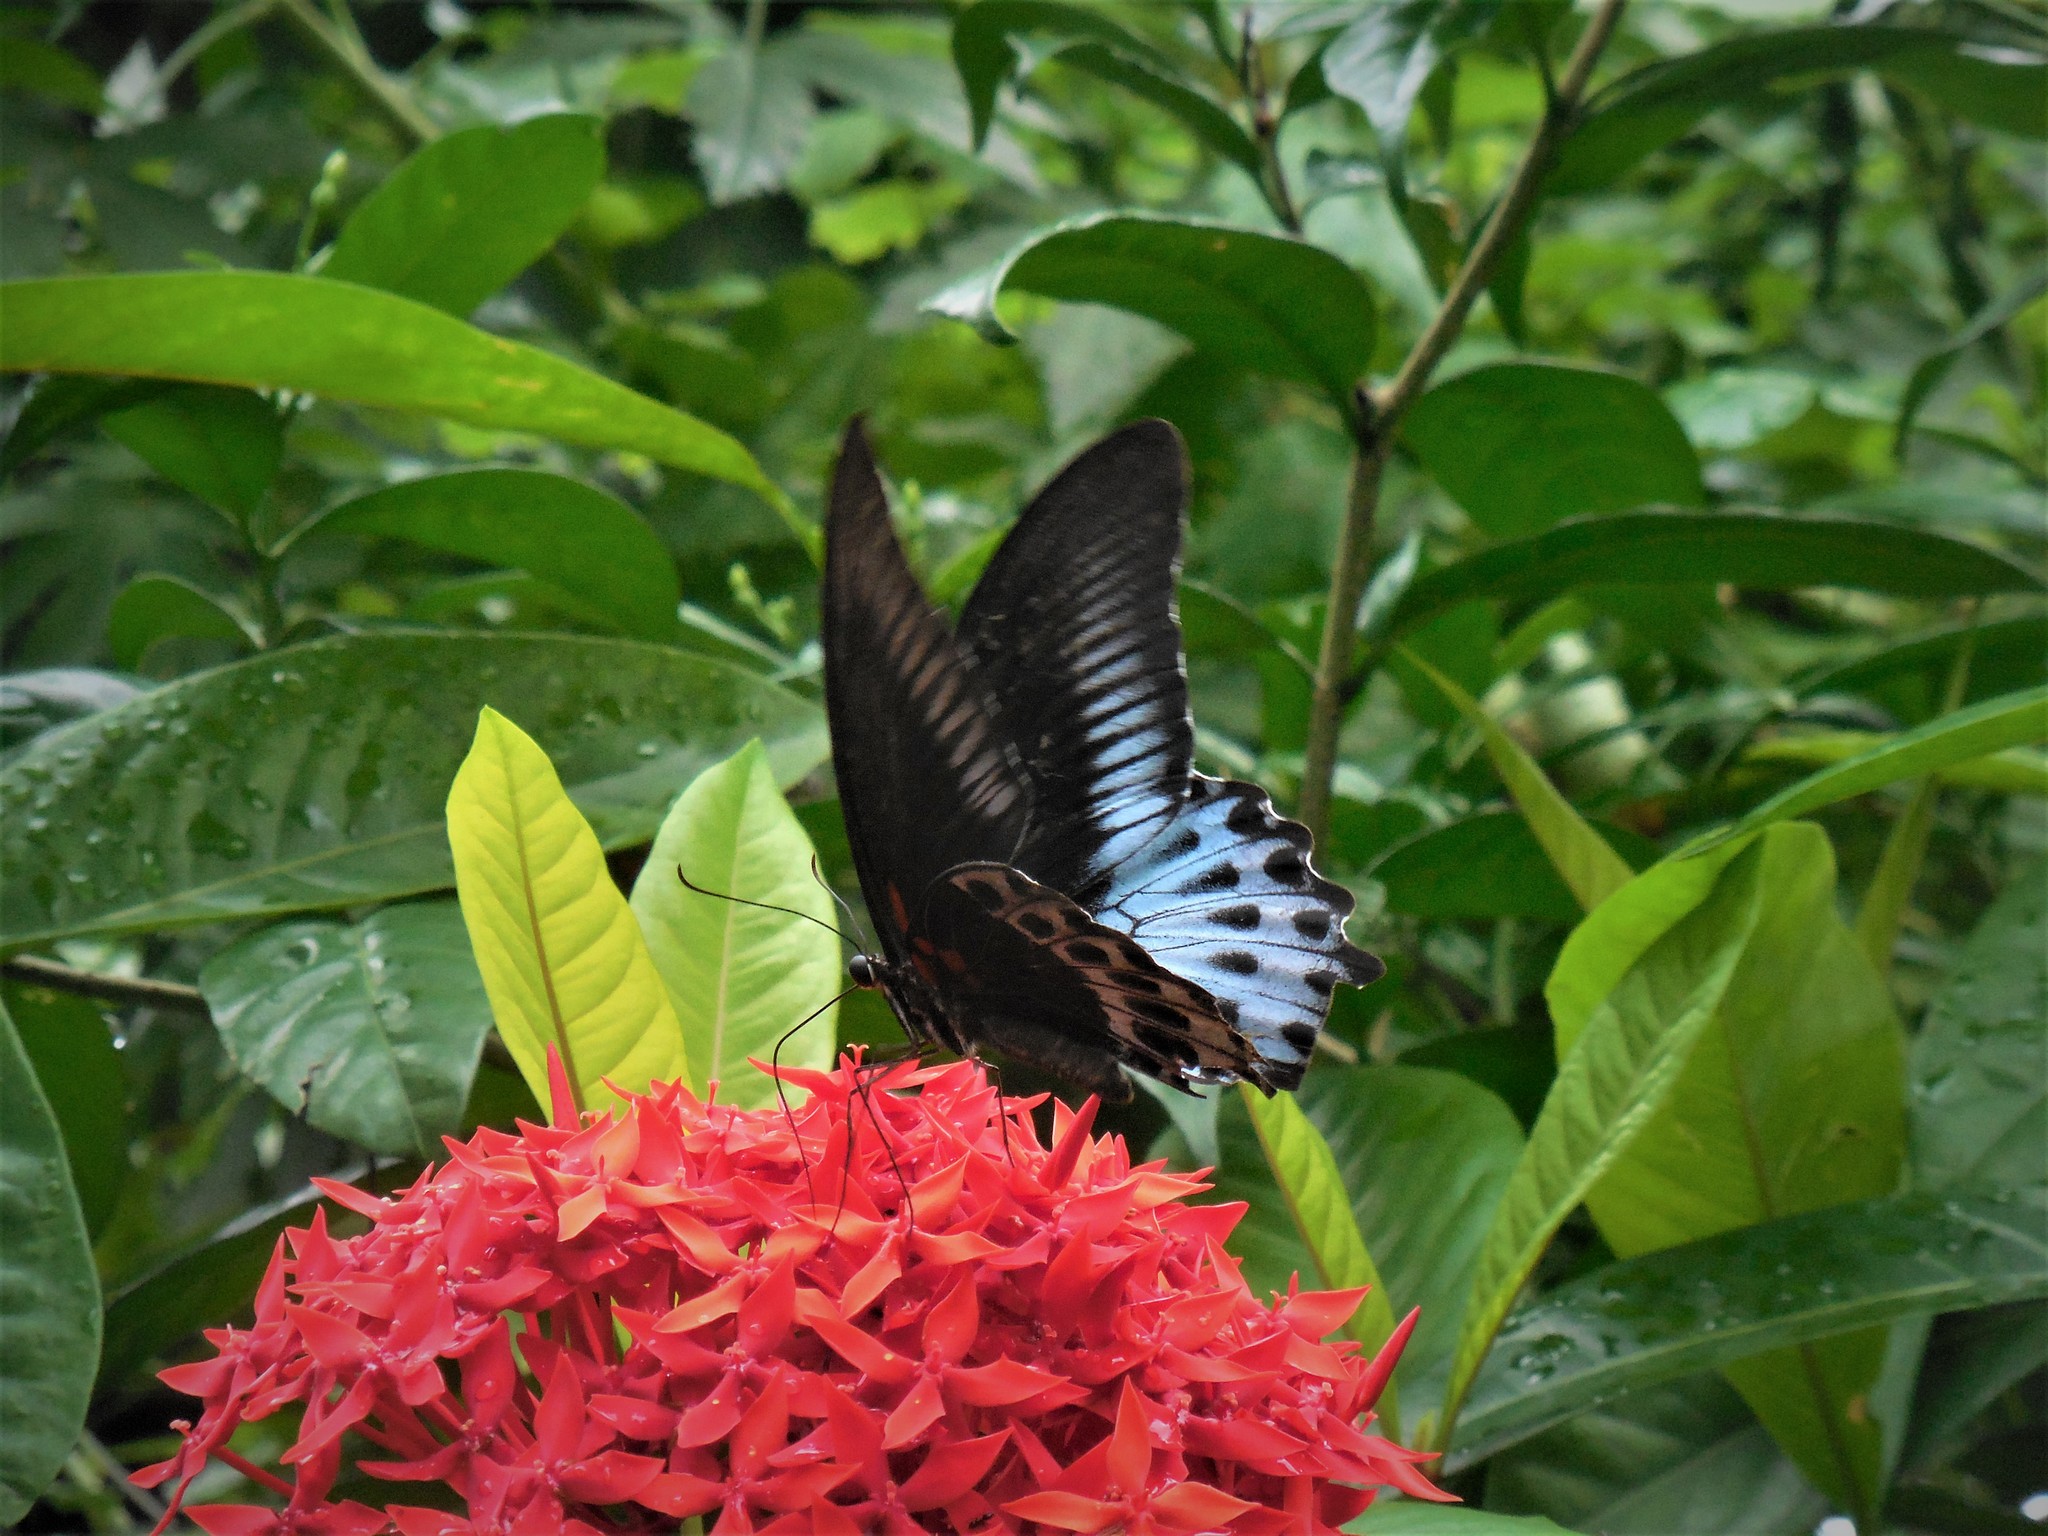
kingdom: Animalia
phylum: Arthropoda
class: Insecta
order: Lepidoptera
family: Papilionidae
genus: Papilio
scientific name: Papilio memnon
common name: Great mormon
